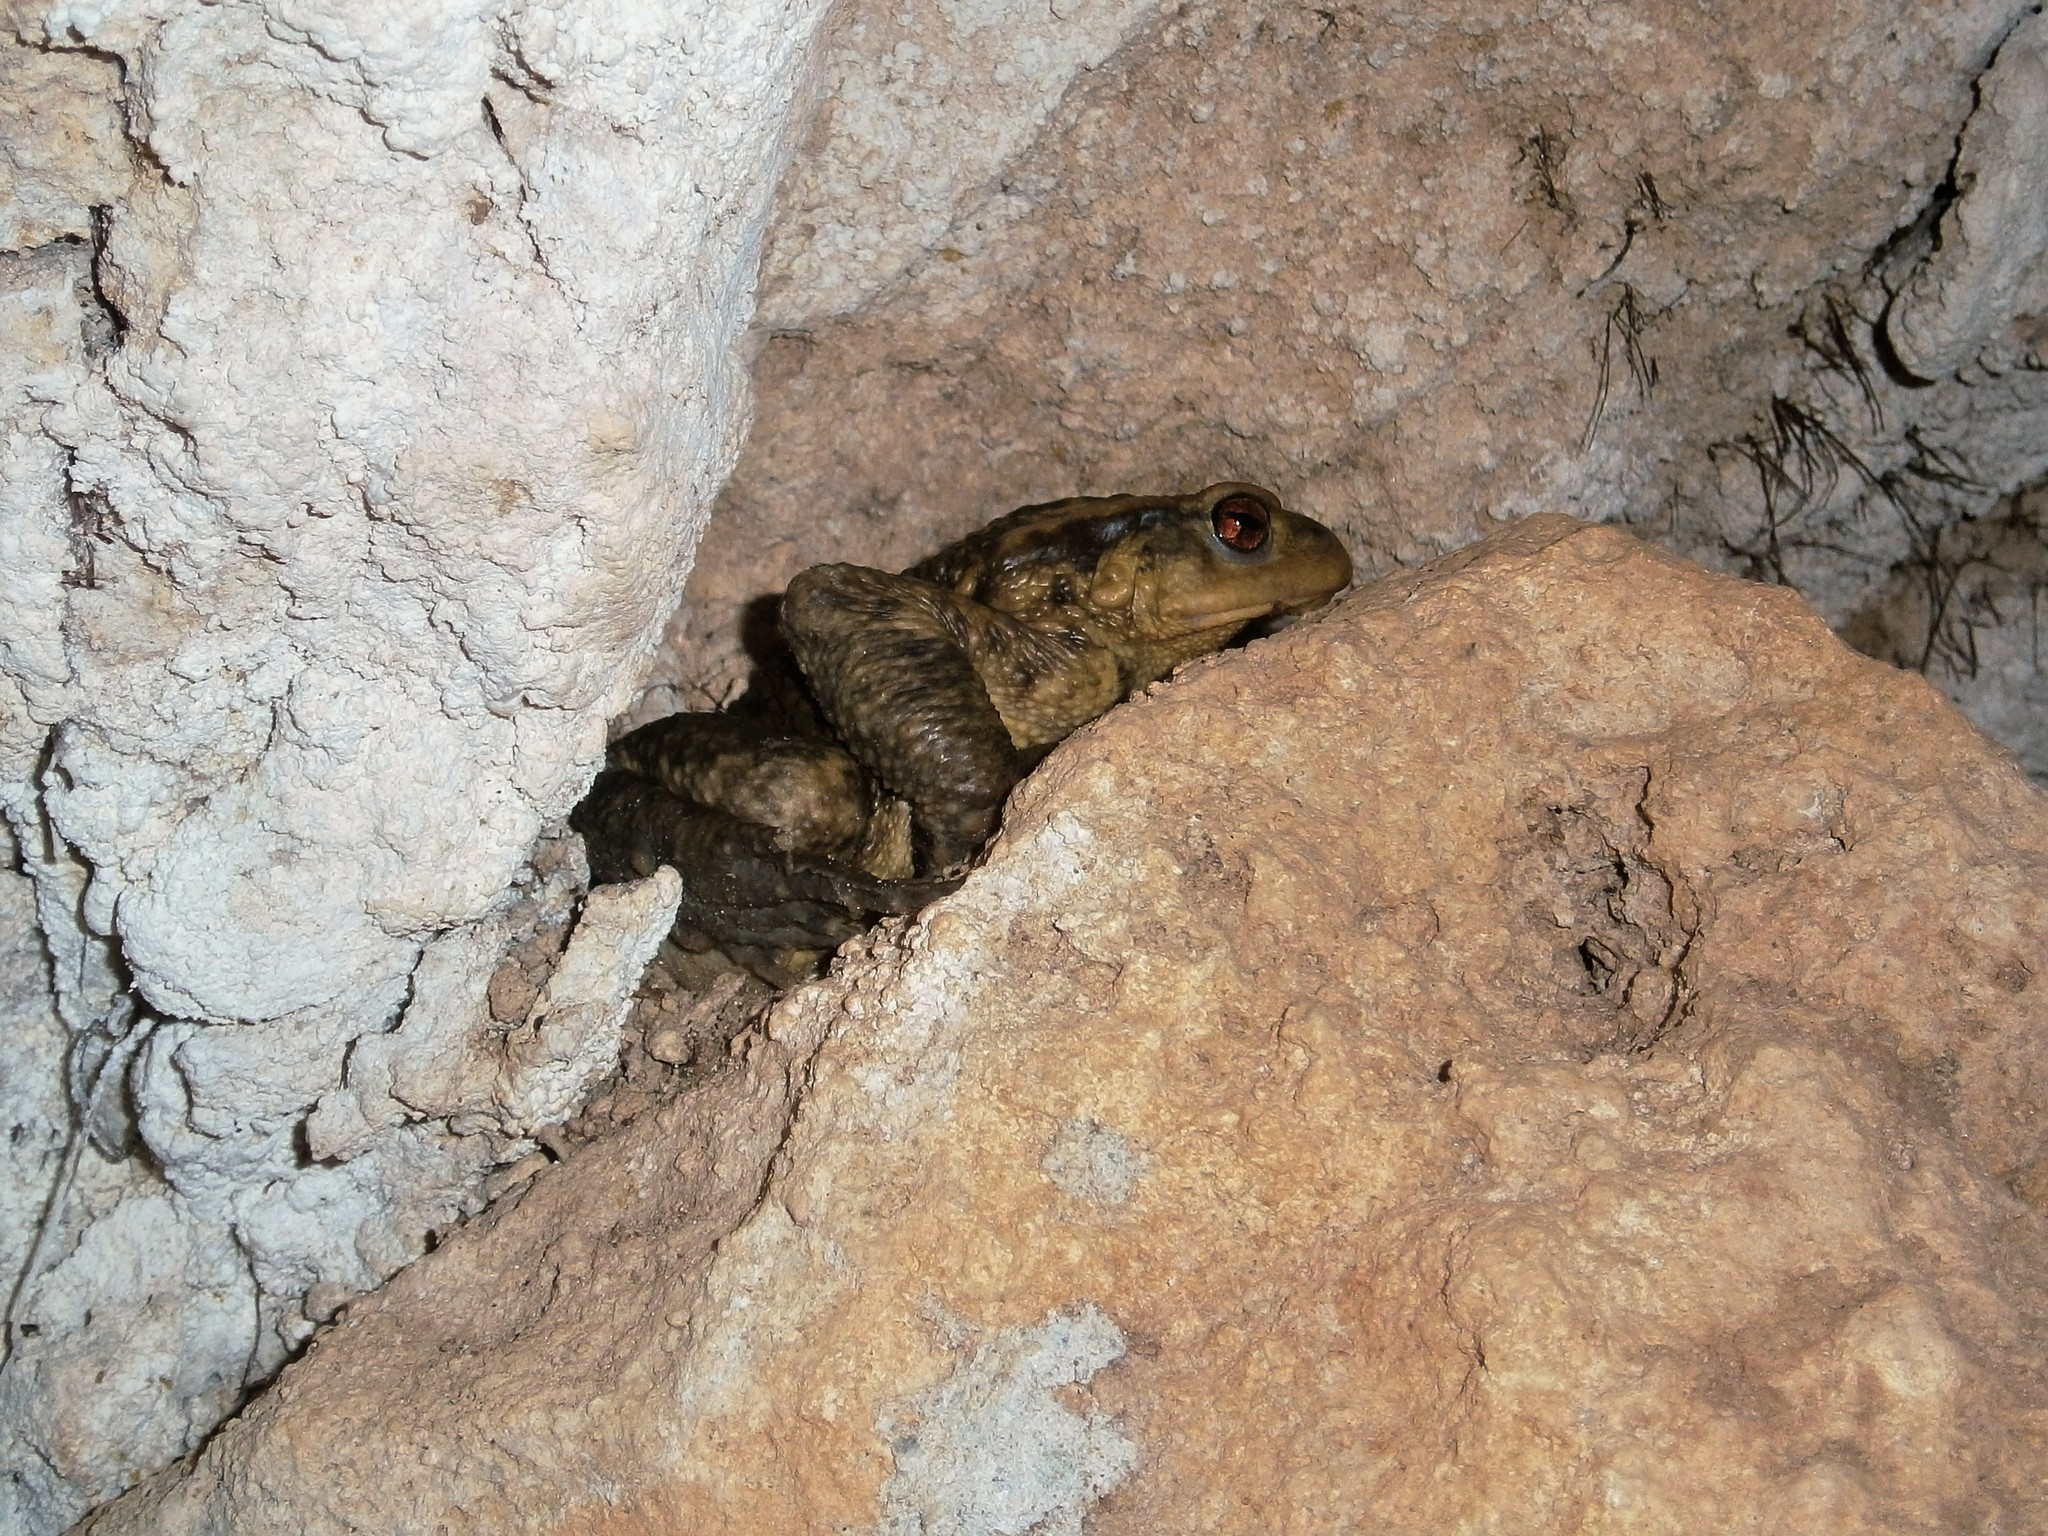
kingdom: Animalia
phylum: Chordata
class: Amphibia
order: Anura
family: Bufonidae
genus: Bufo
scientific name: Bufo bufo
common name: Common toad
